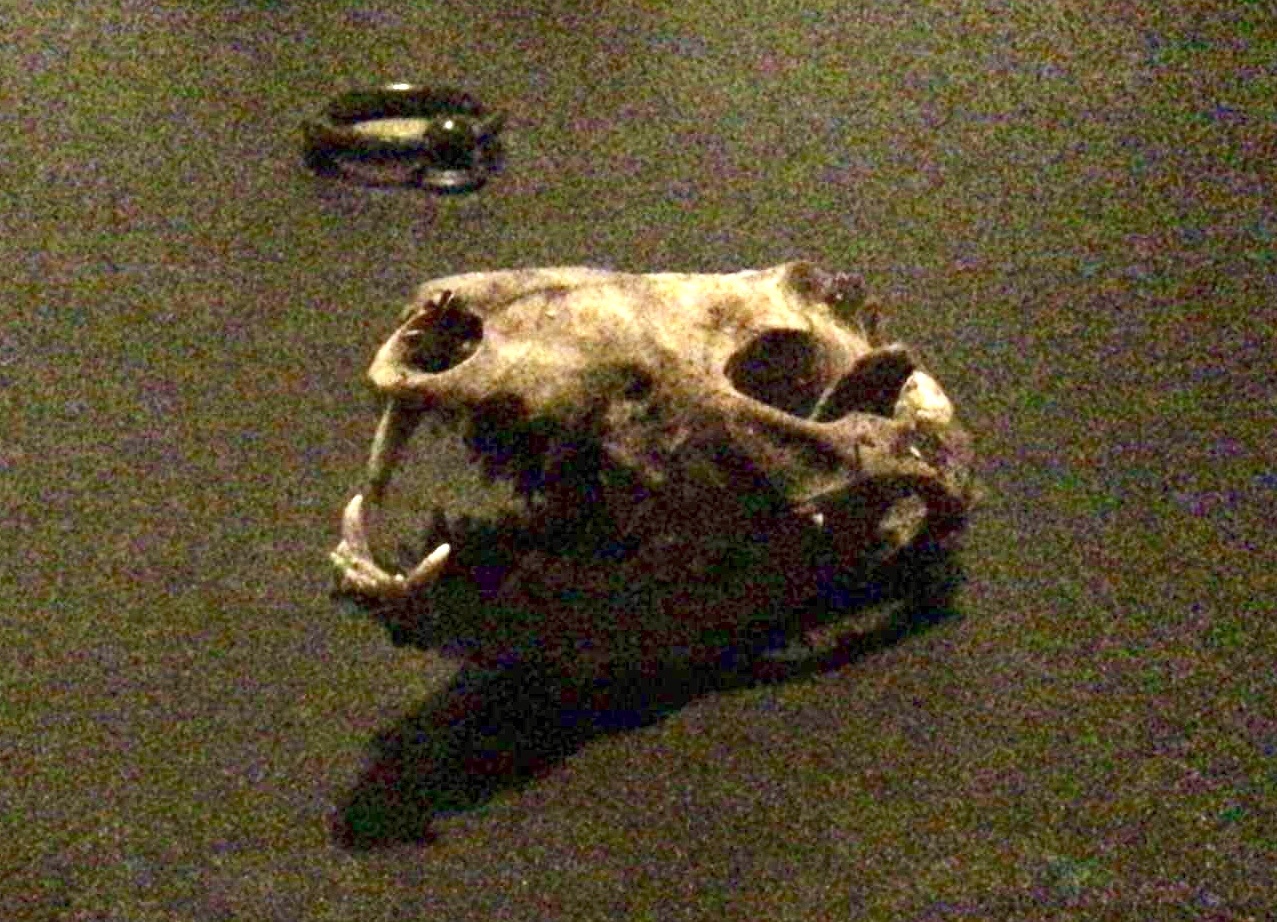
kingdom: Animalia
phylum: Chordata
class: Mammalia
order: Didelphimorphia
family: Didelphidae
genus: Didelphis
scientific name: Didelphis virginiana
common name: Virginia opossum
